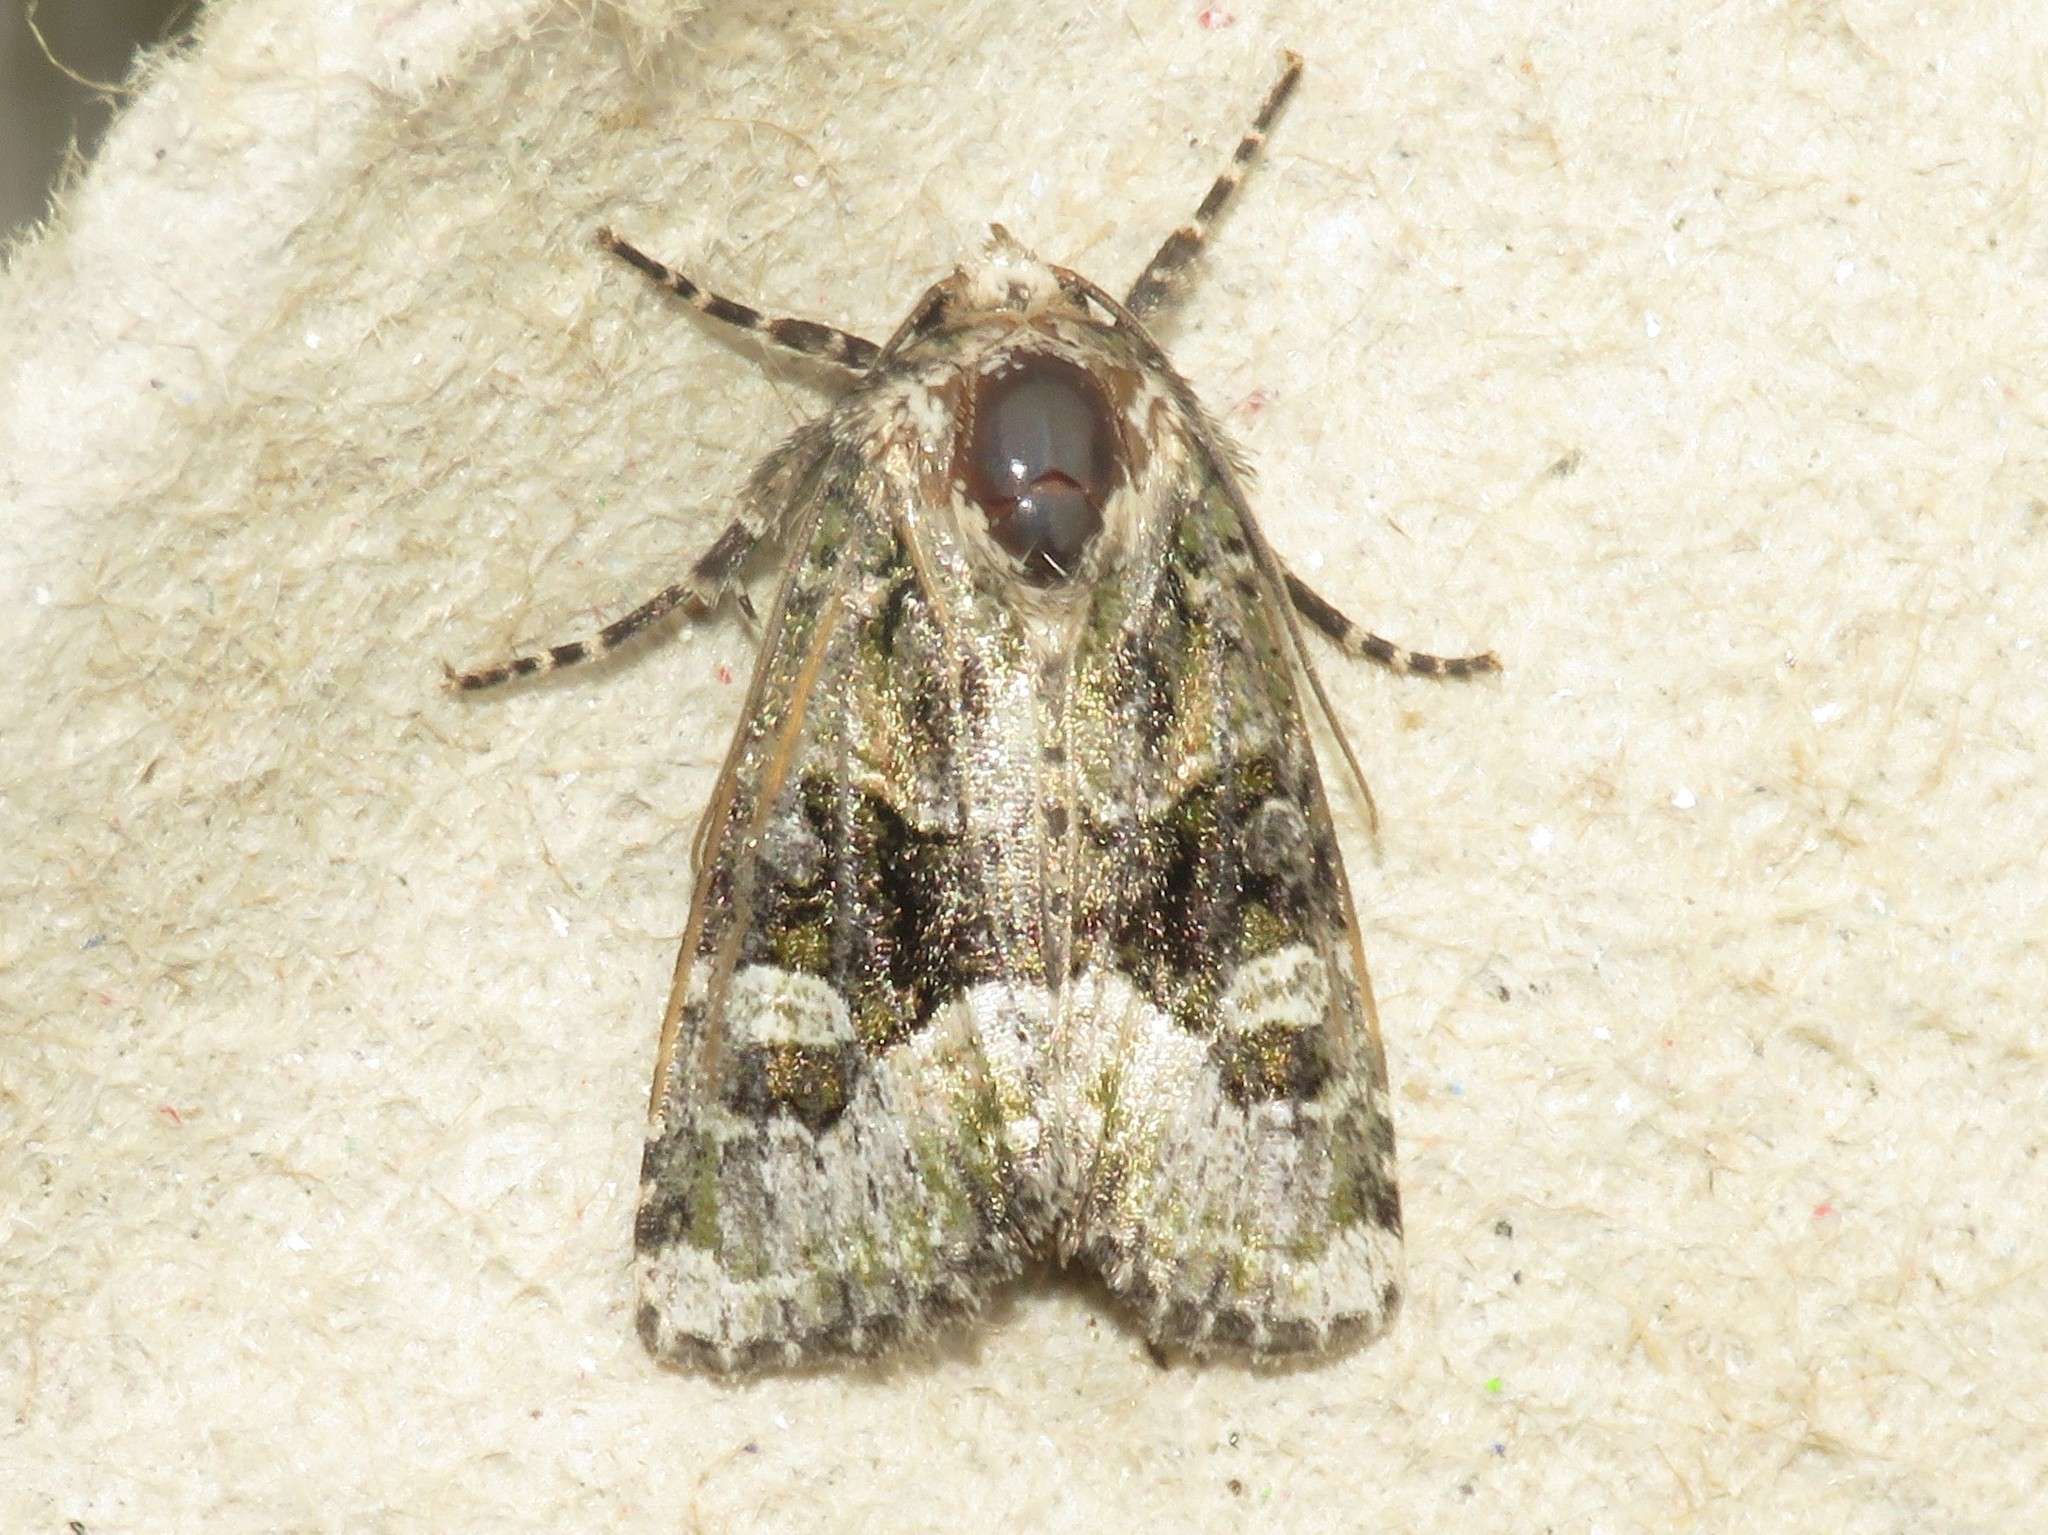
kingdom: Animalia
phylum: Arthropoda
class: Insecta
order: Lepidoptera
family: Noctuidae
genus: Lacinipolia
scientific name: Lacinipolia olivacea
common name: Olive arches moth
